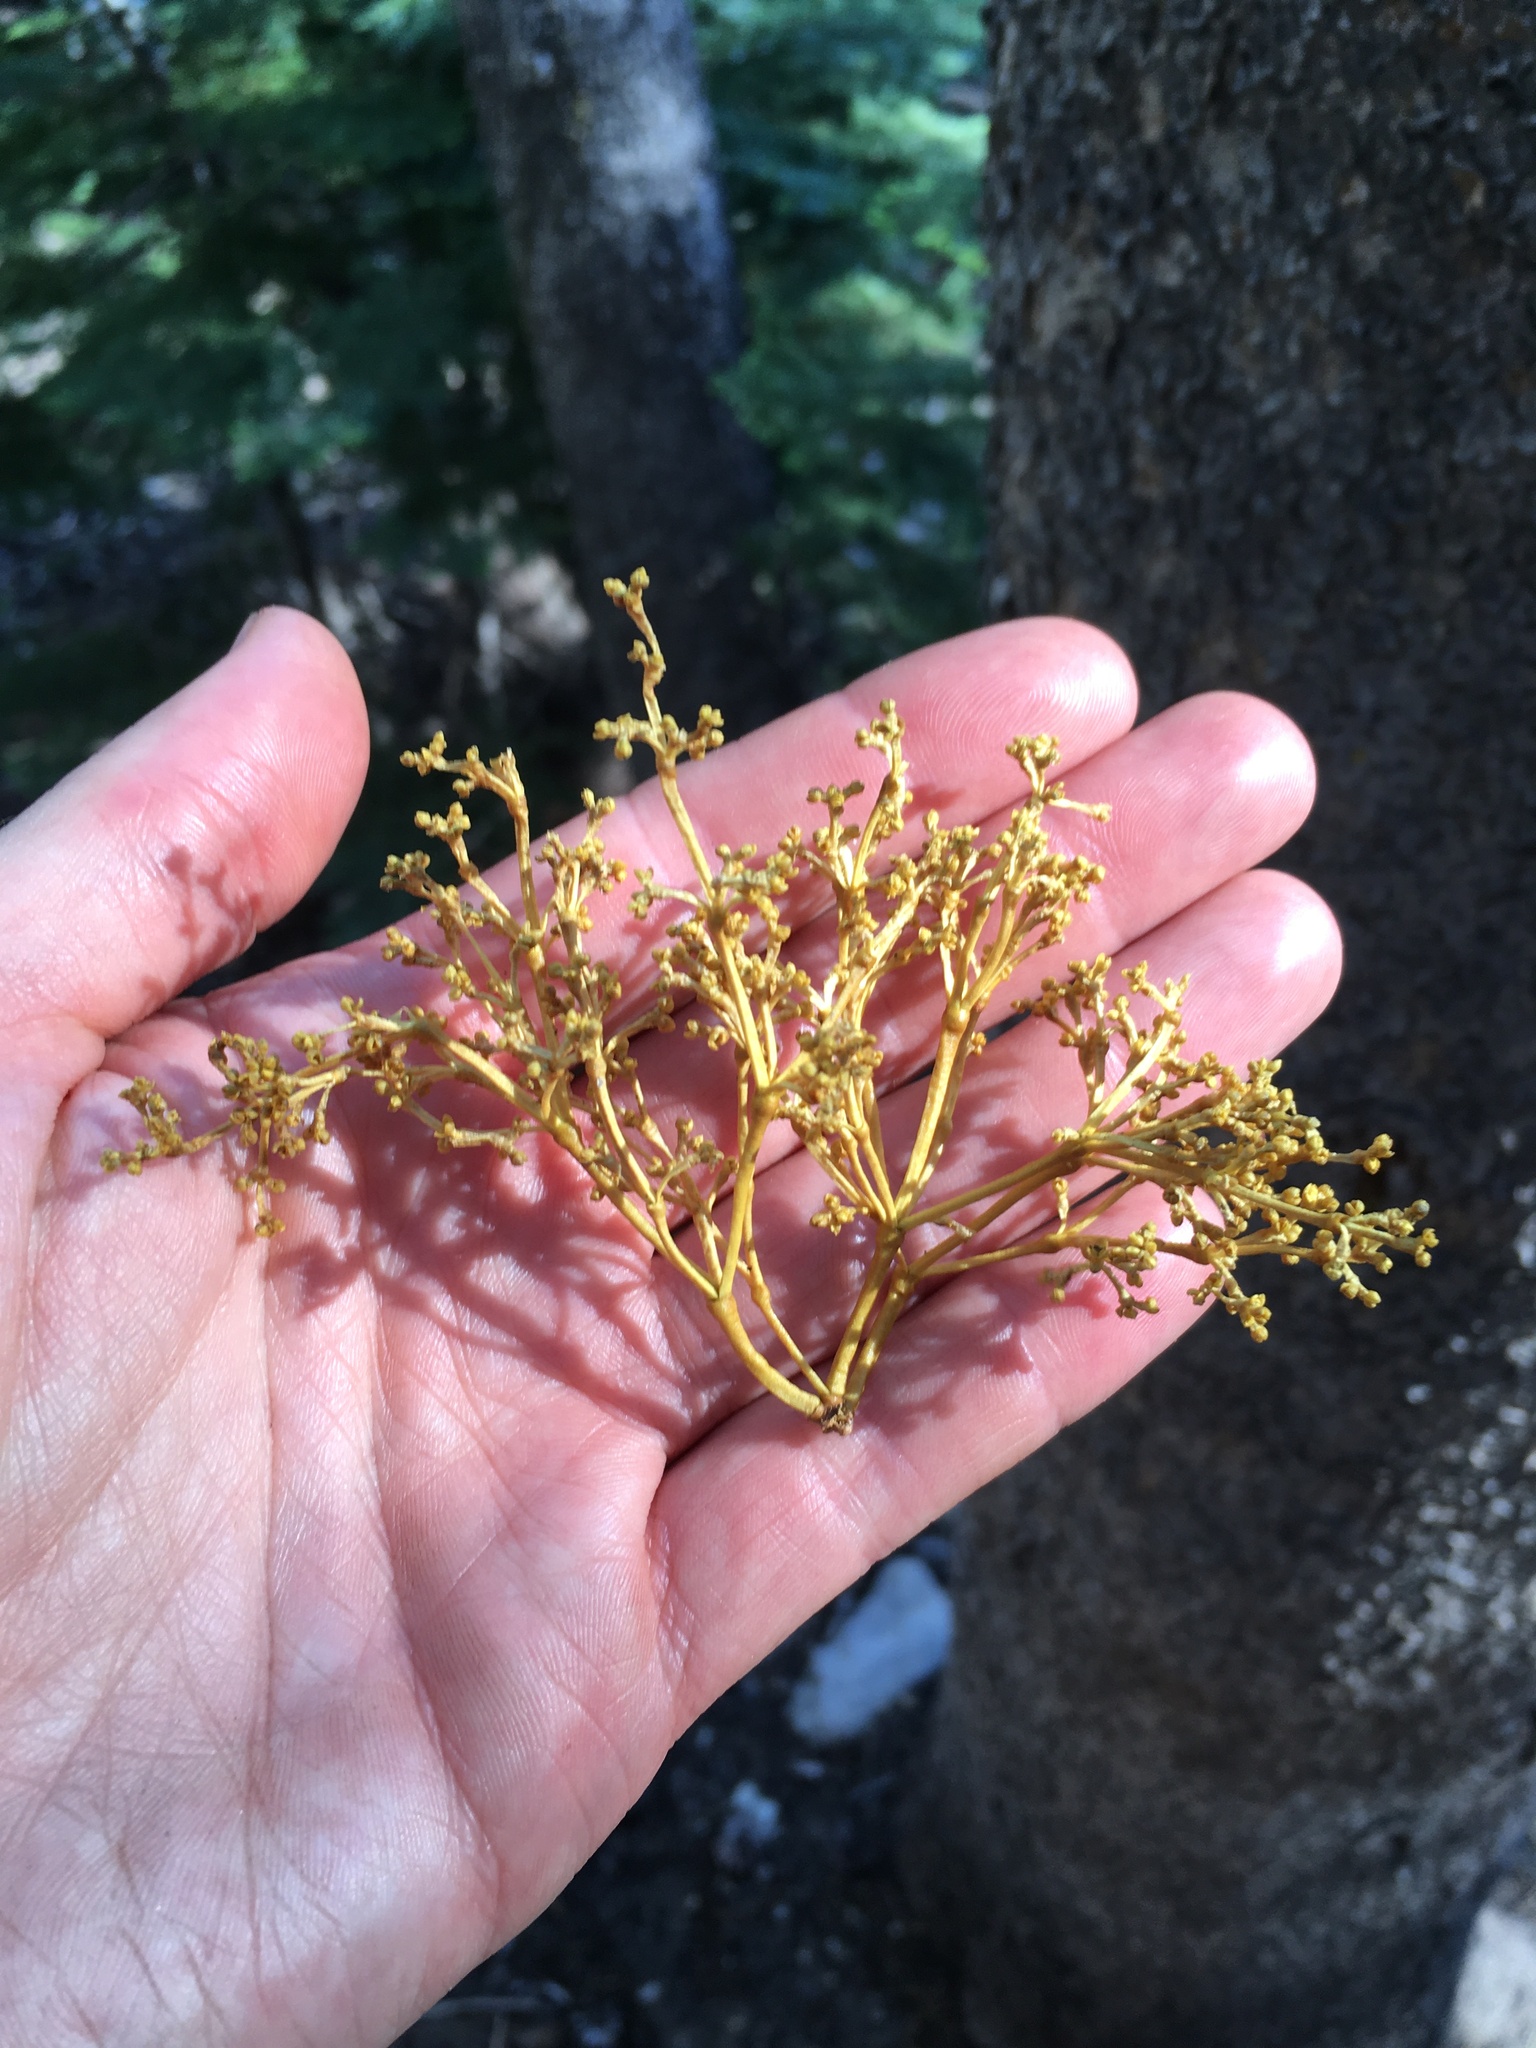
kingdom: Plantae
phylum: Tracheophyta
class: Magnoliopsida
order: Santalales
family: Viscaceae
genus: Arceuthobium
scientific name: Arceuthobium americanum
